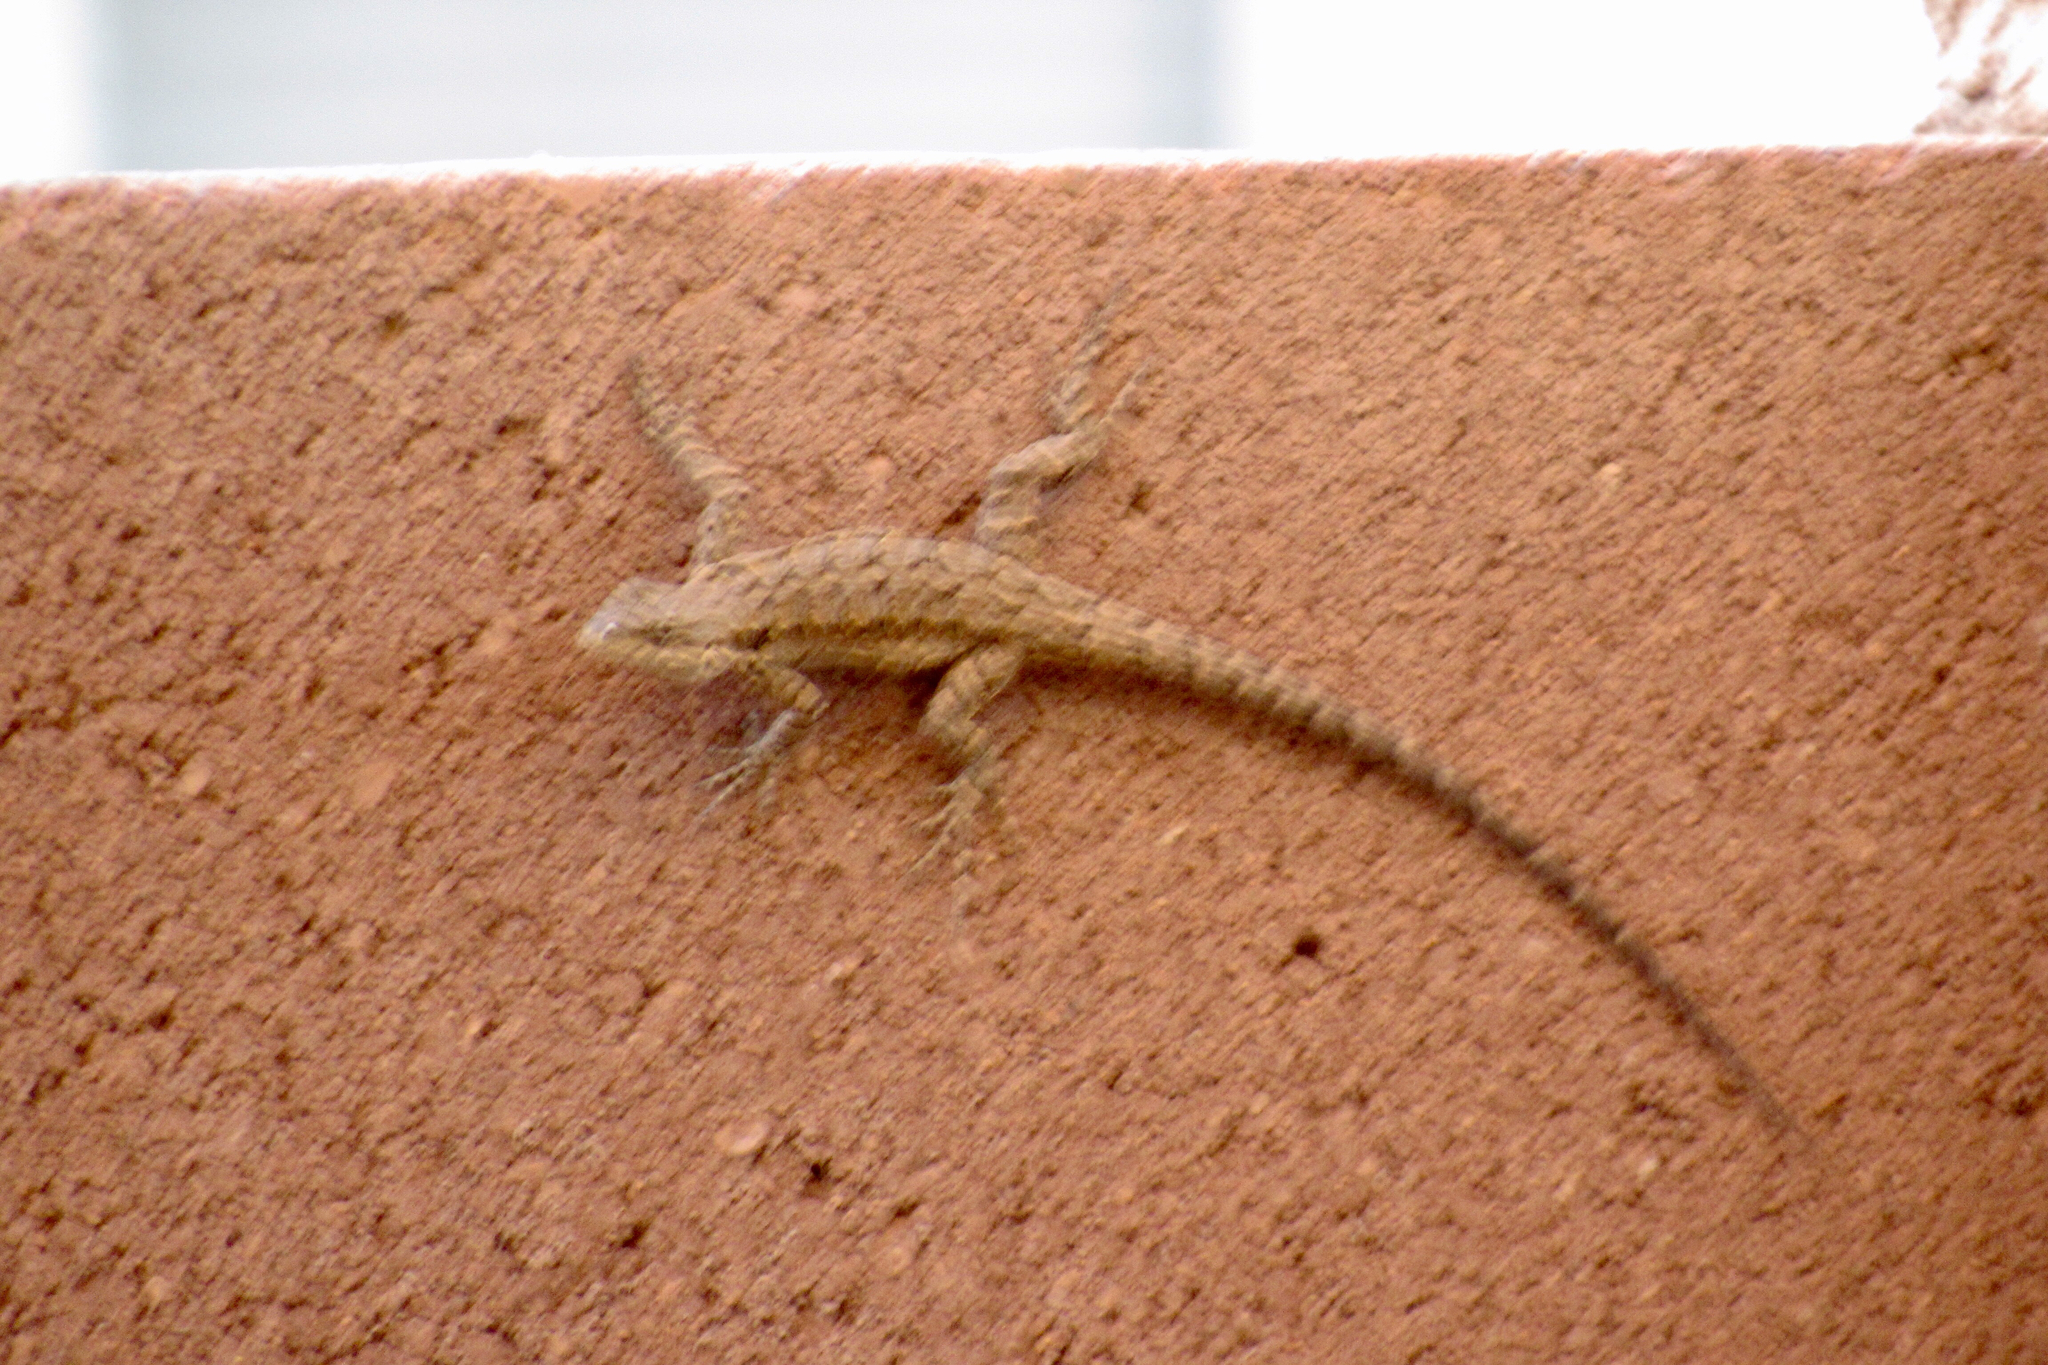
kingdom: Animalia
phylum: Chordata
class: Squamata
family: Phrynosomatidae
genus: Urosaurus
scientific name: Urosaurus ornatus
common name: Ornate tree lizard
